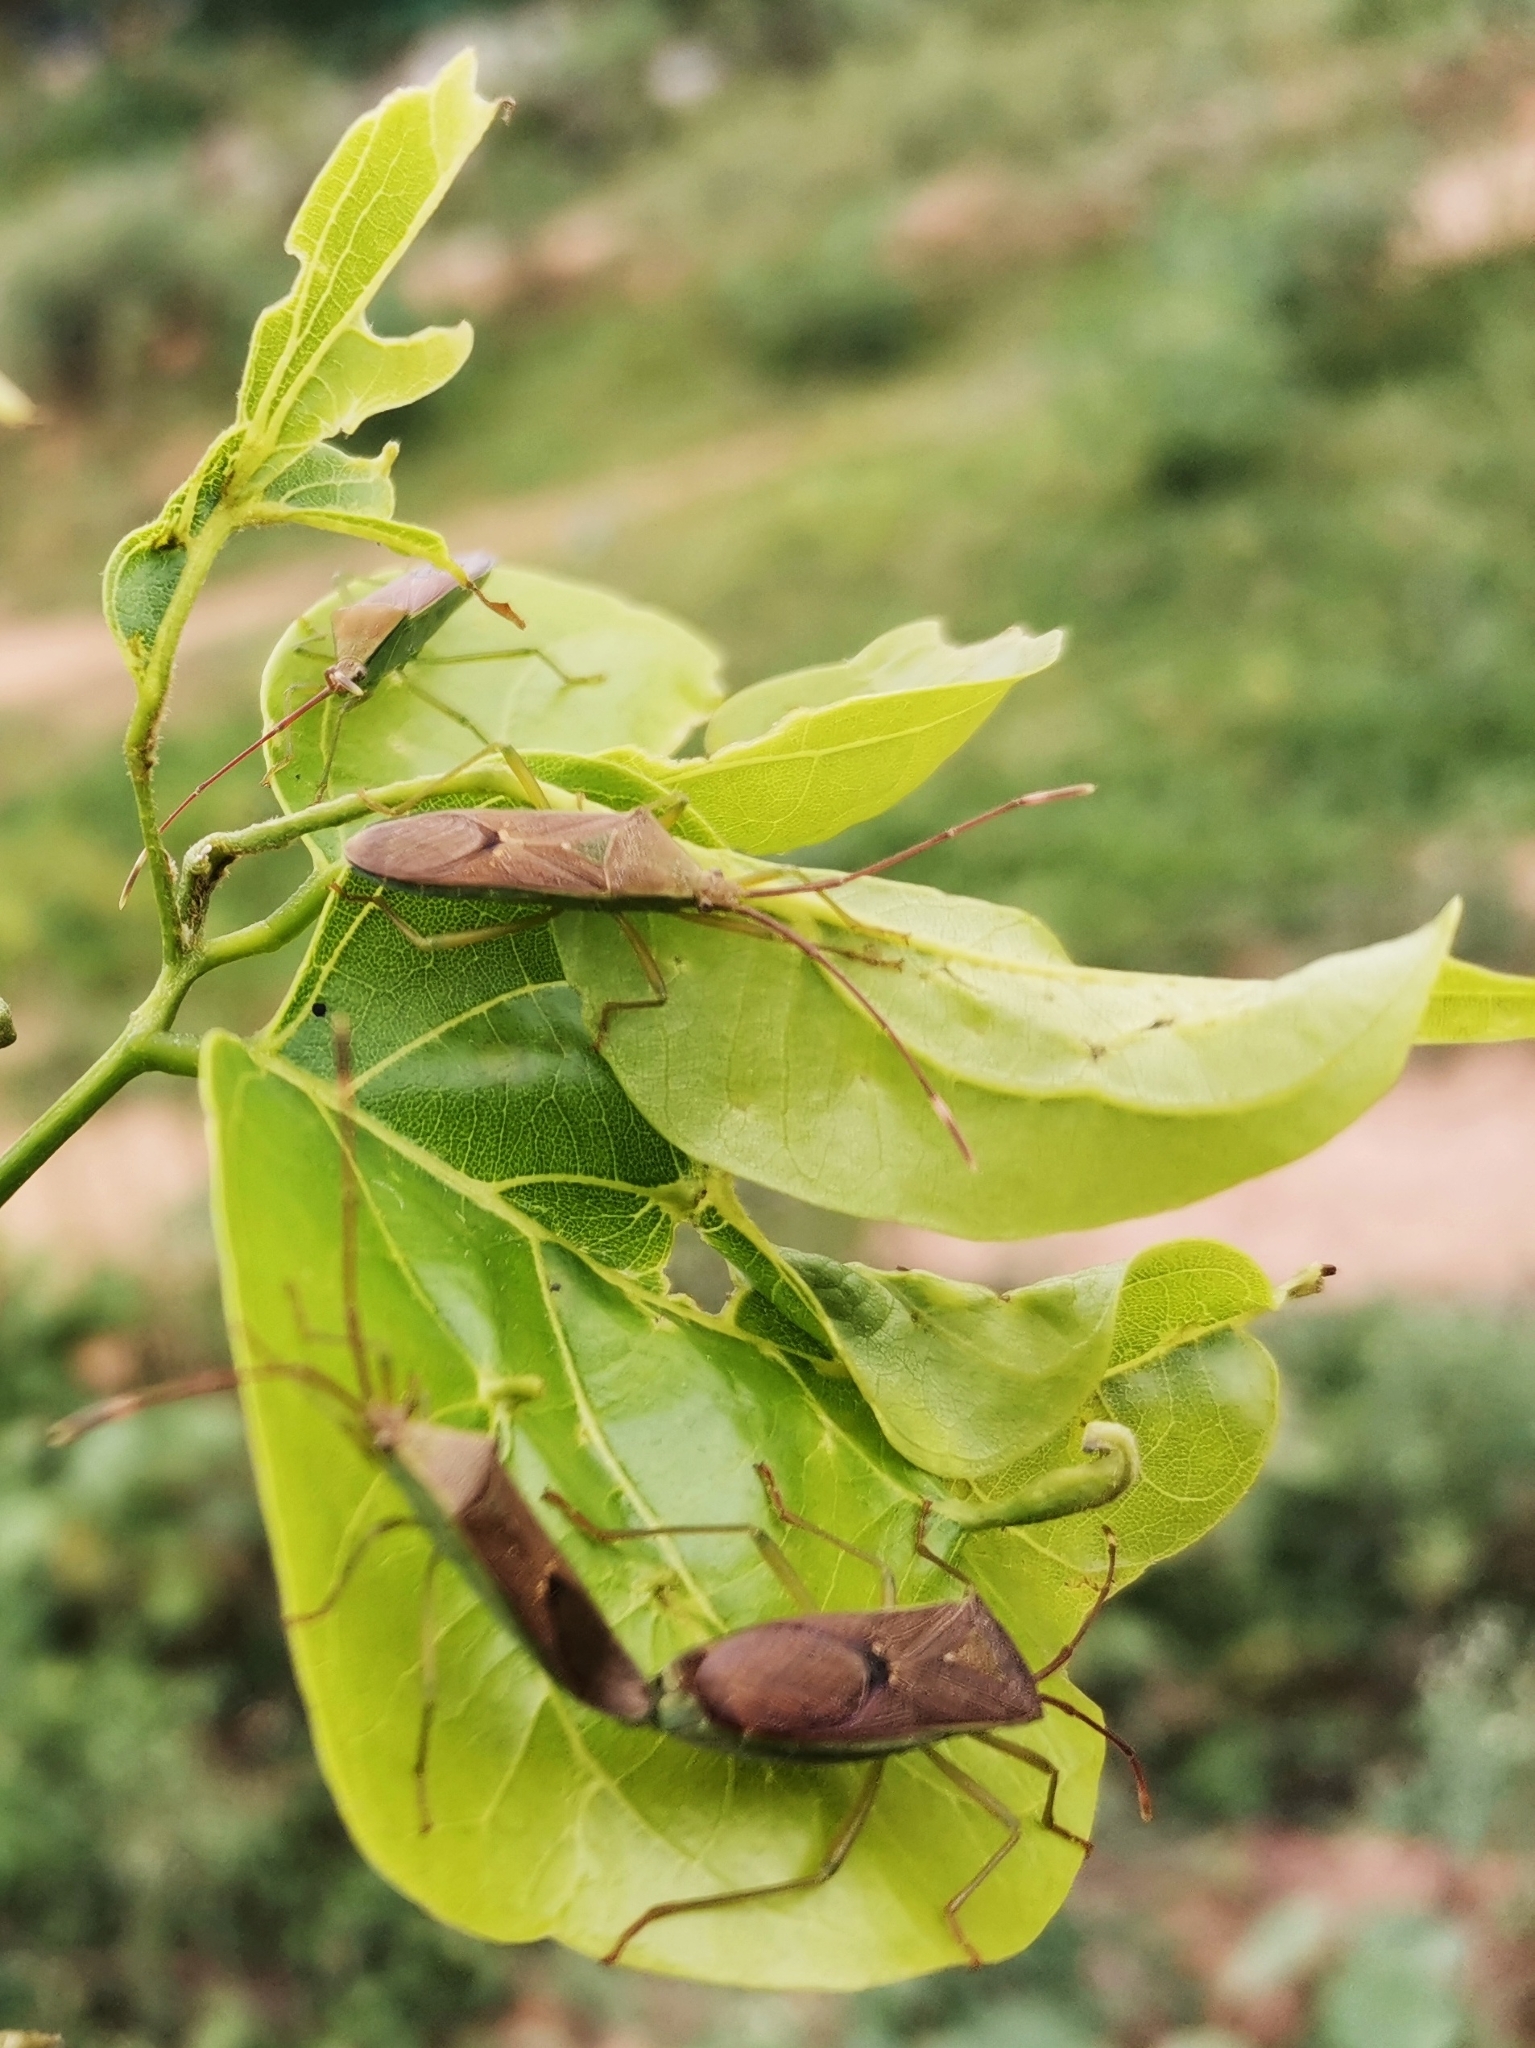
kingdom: Animalia
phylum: Arthropoda
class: Insecta
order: Hemiptera
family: Coreidae
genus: Homoeocerus
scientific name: Homoeocerus relatus
